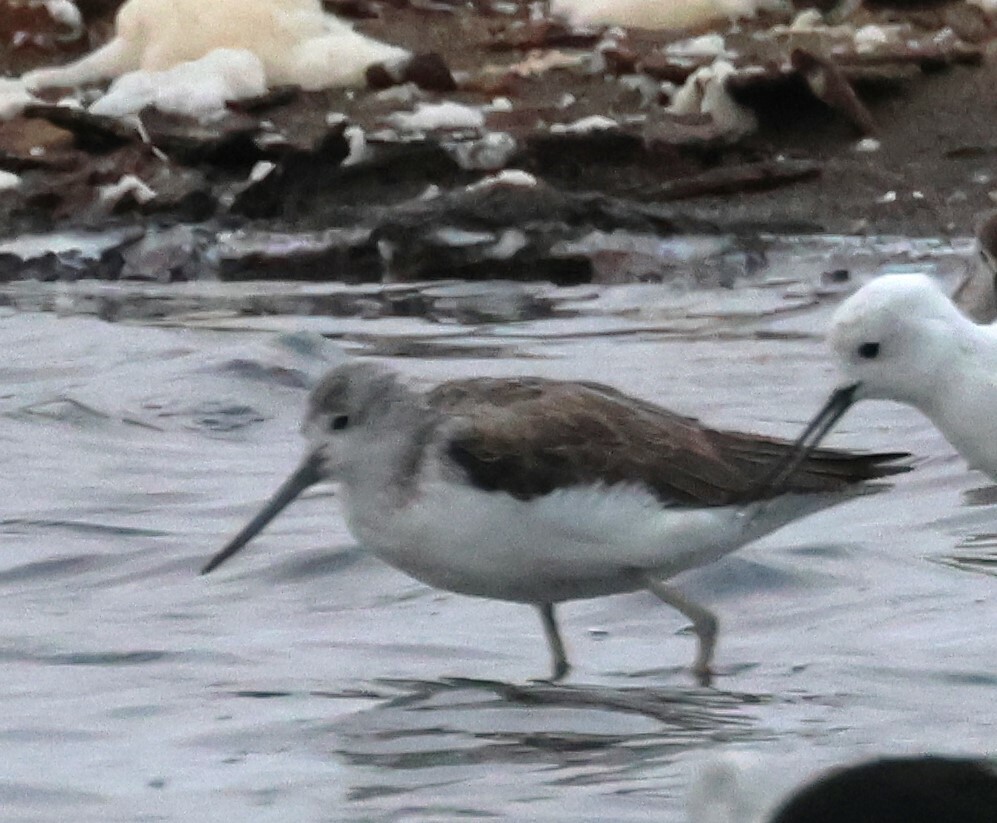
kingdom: Animalia
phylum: Chordata
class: Aves
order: Charadriiformes
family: Scolopacidae
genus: Tringa
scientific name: Tringa nebularia
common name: Common greenshank
